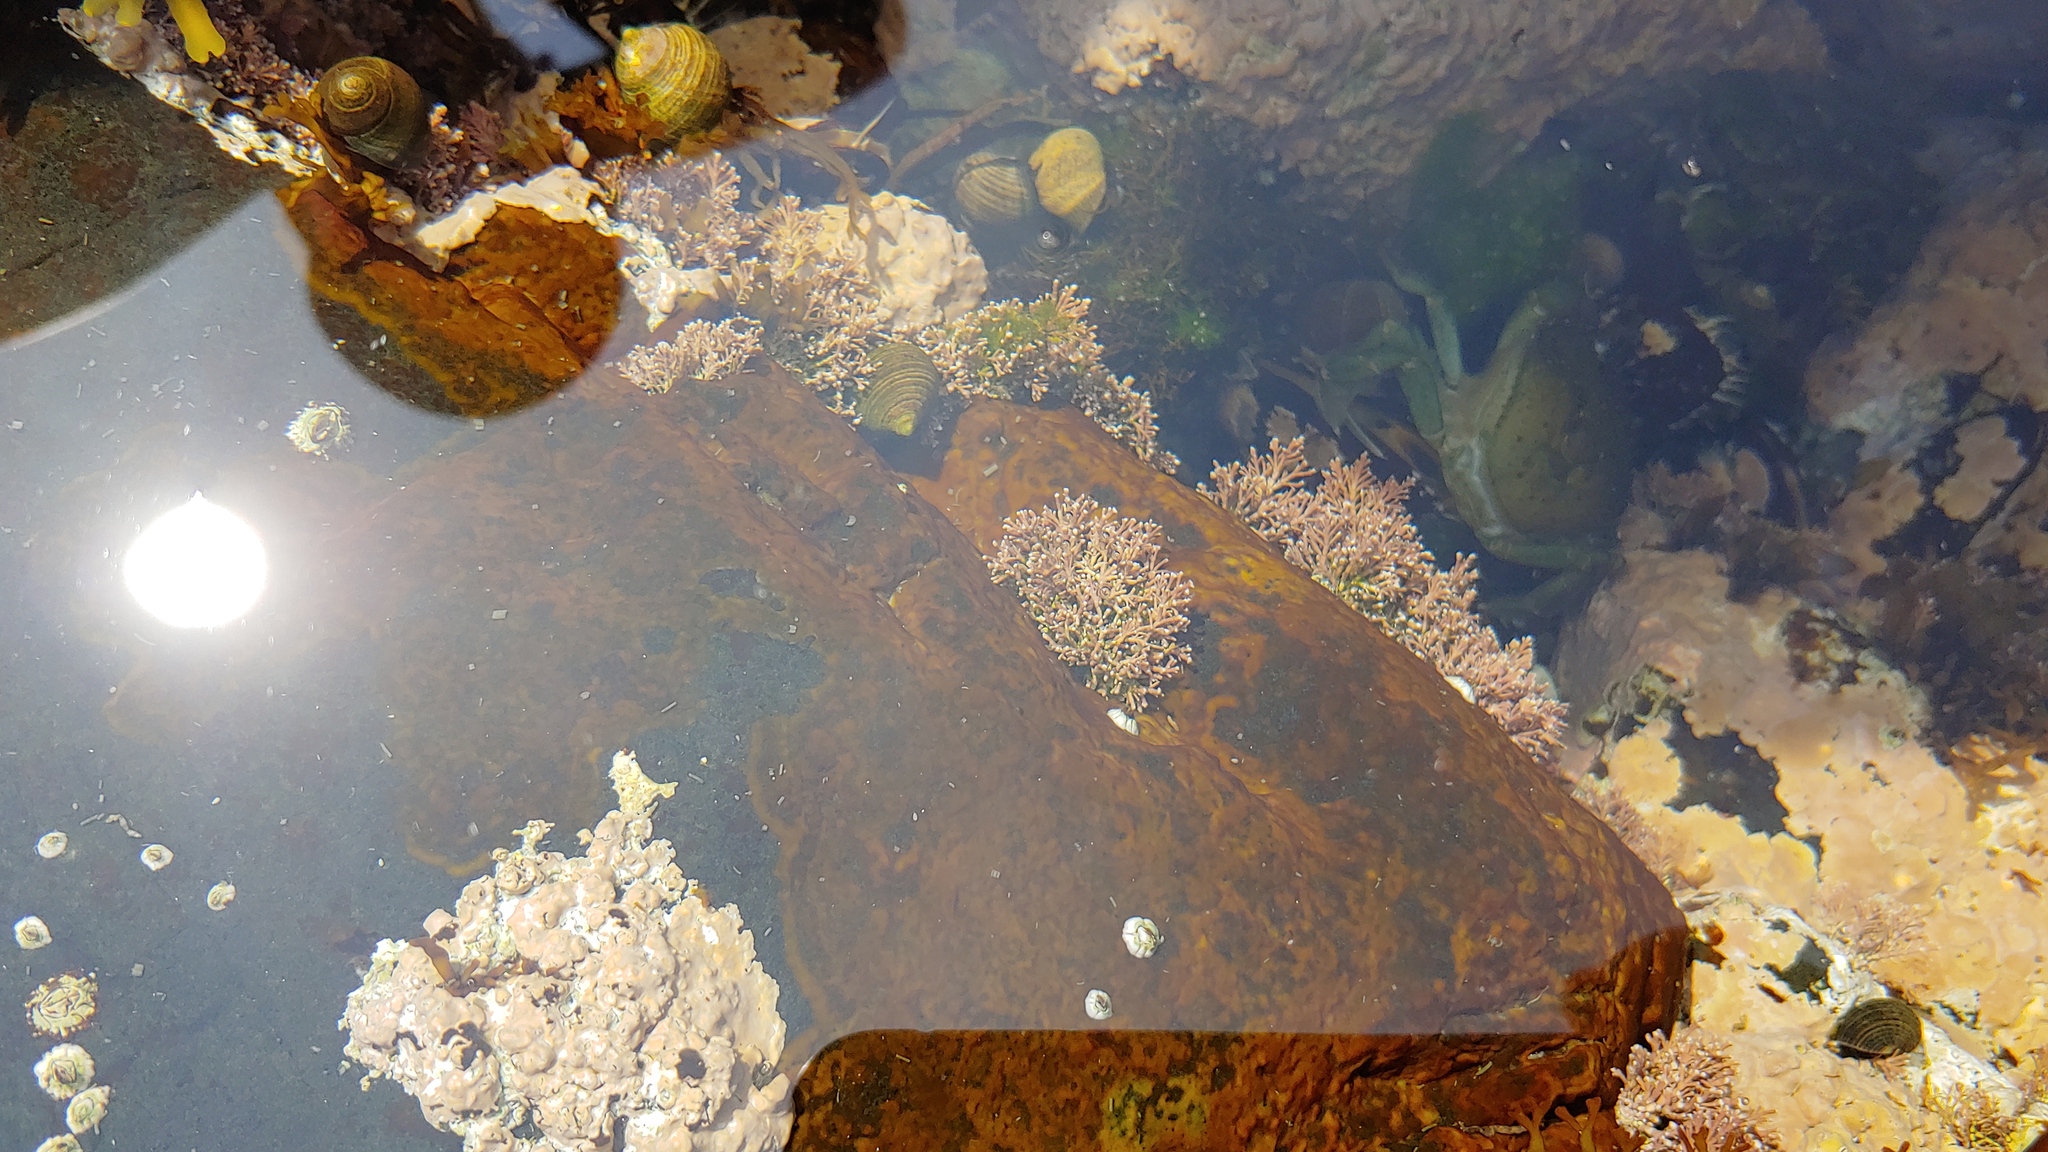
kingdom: Plantae
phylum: Rhodophyta
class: Florideophyceae
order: Corallinales
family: Corallinaceae
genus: Corallina
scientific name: Corallina officinalis
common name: Coral weed
